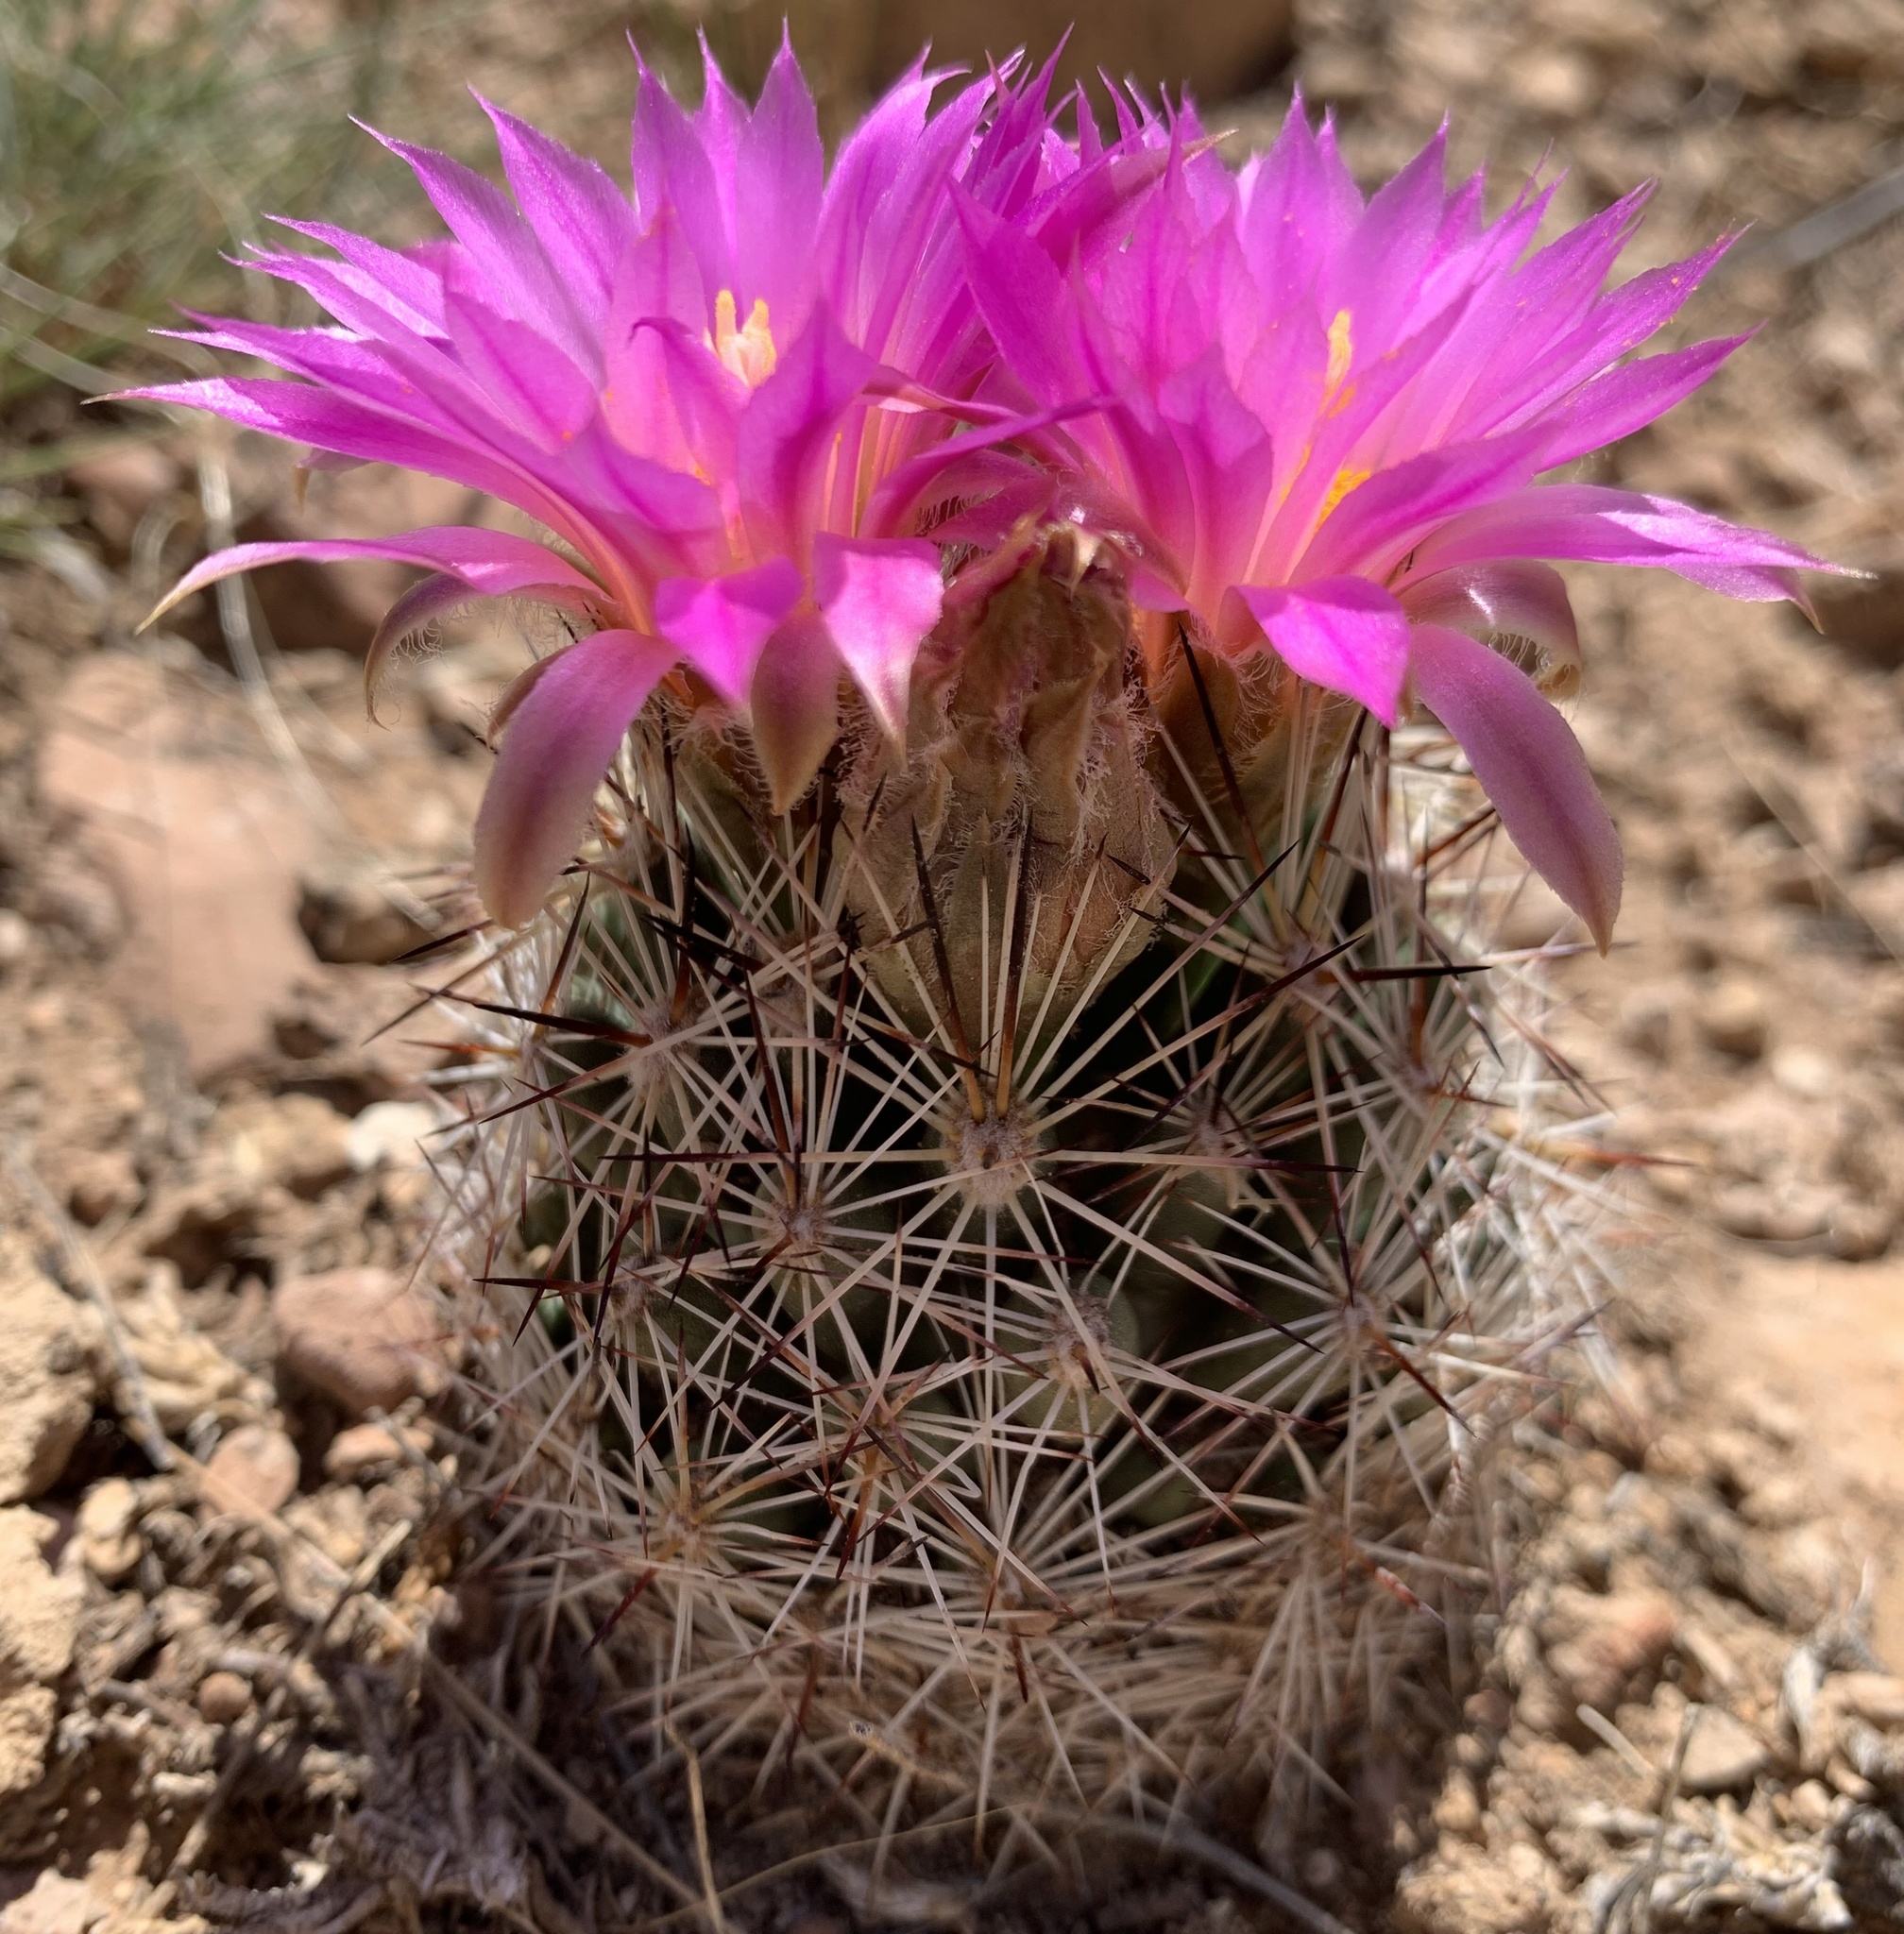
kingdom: Plantae
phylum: Tracheophyta
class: Magnoliopsida
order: Caryophyllales
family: Cactaceae
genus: Pelecyphora
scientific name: Pelecyphora vivipara
